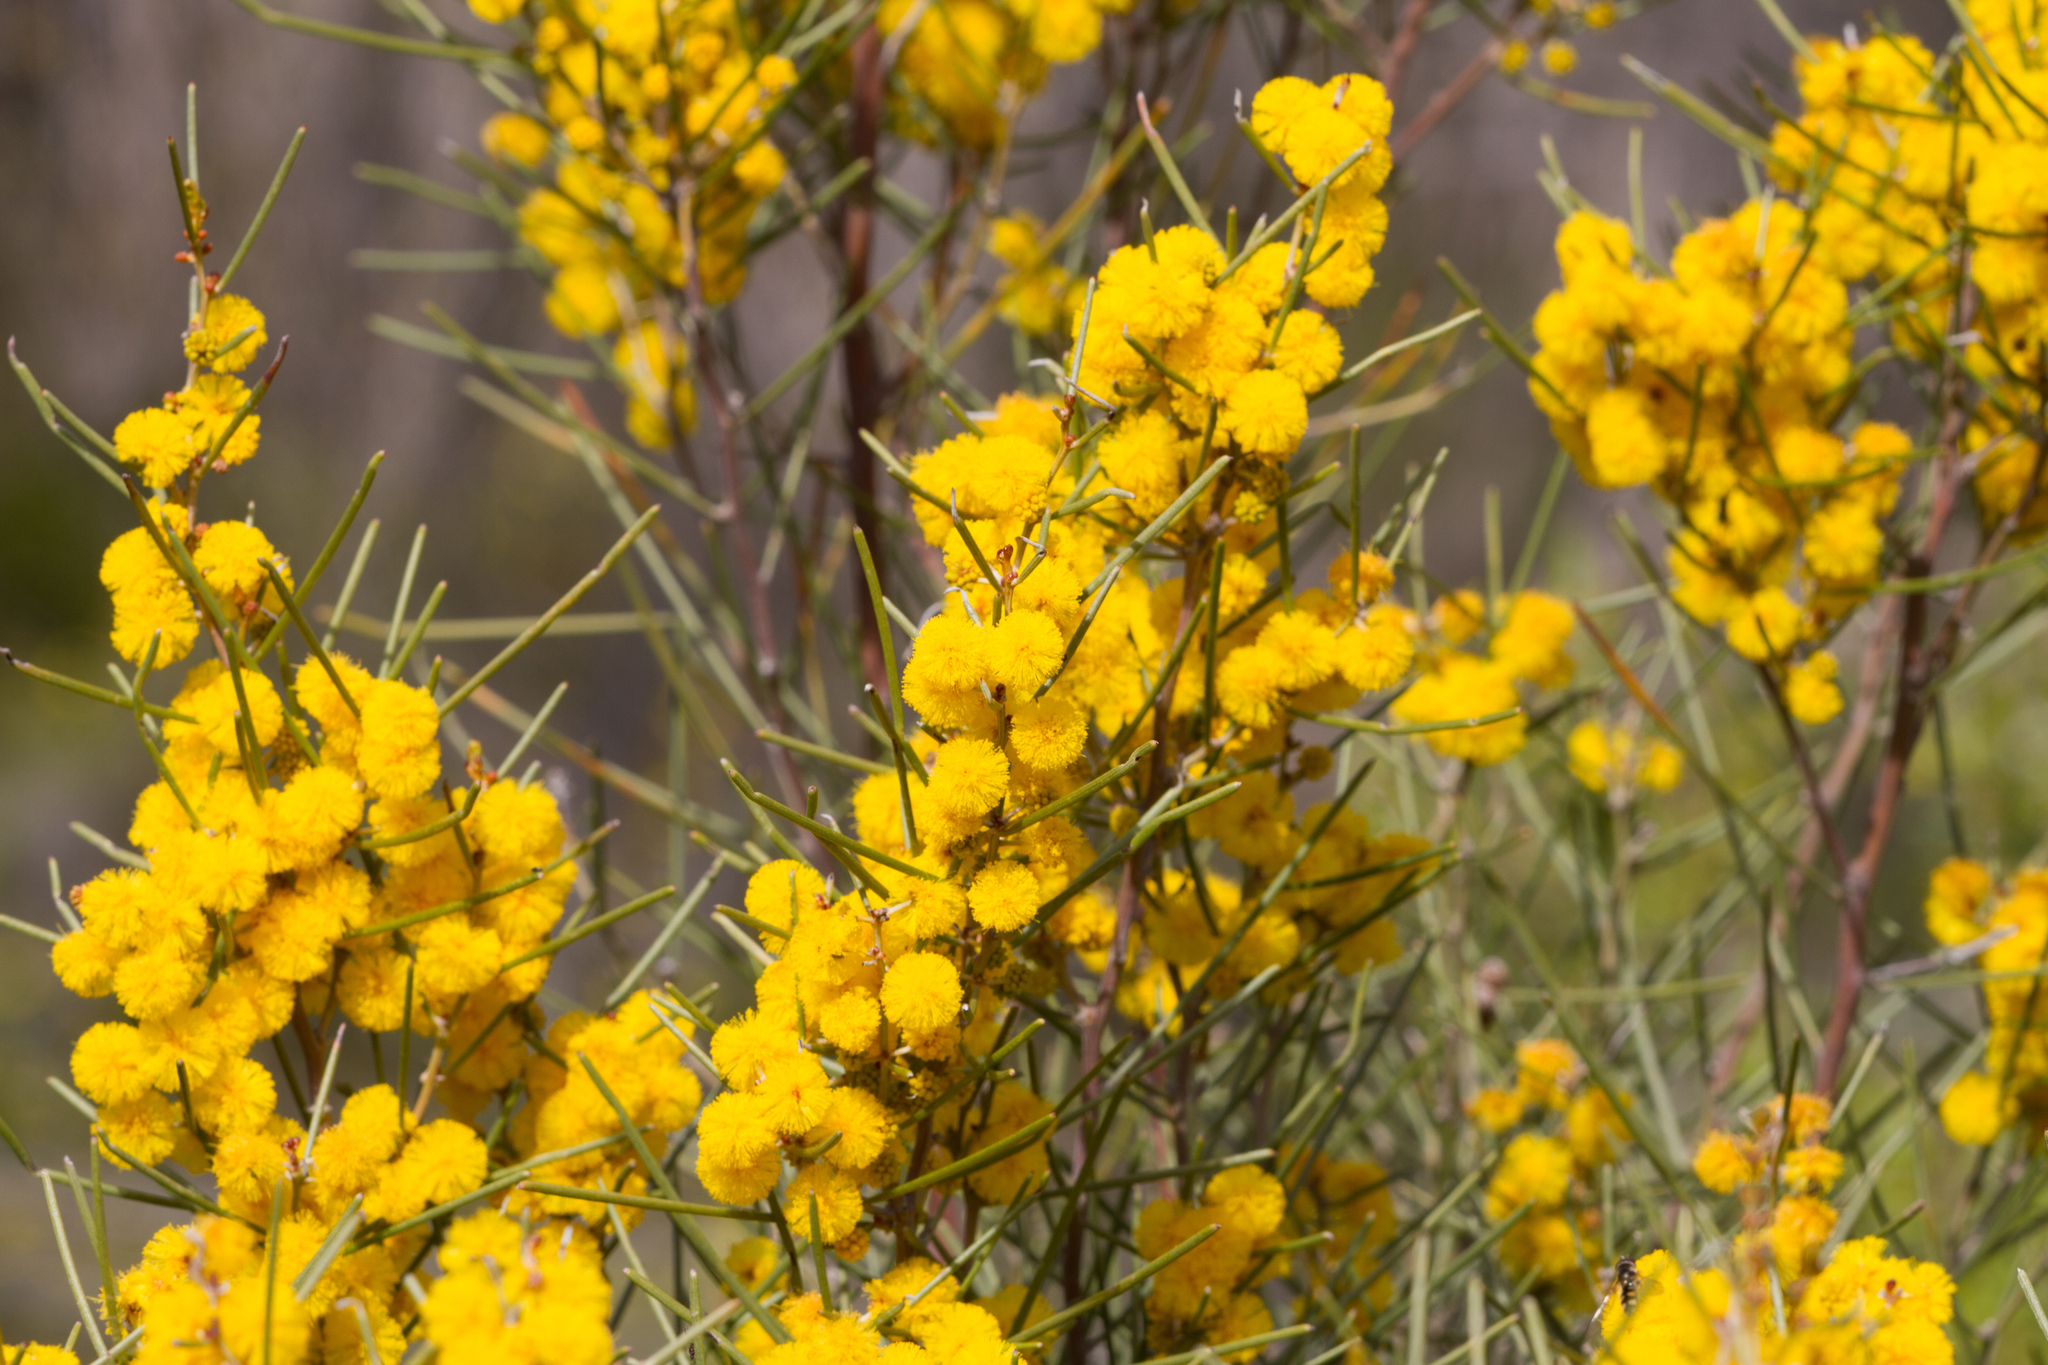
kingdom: Plantae
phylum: Tracheophyta
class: Magnoliopsida
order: Fabales
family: Fabaceae
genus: Acacia
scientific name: Acacia rigens
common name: Nealie
